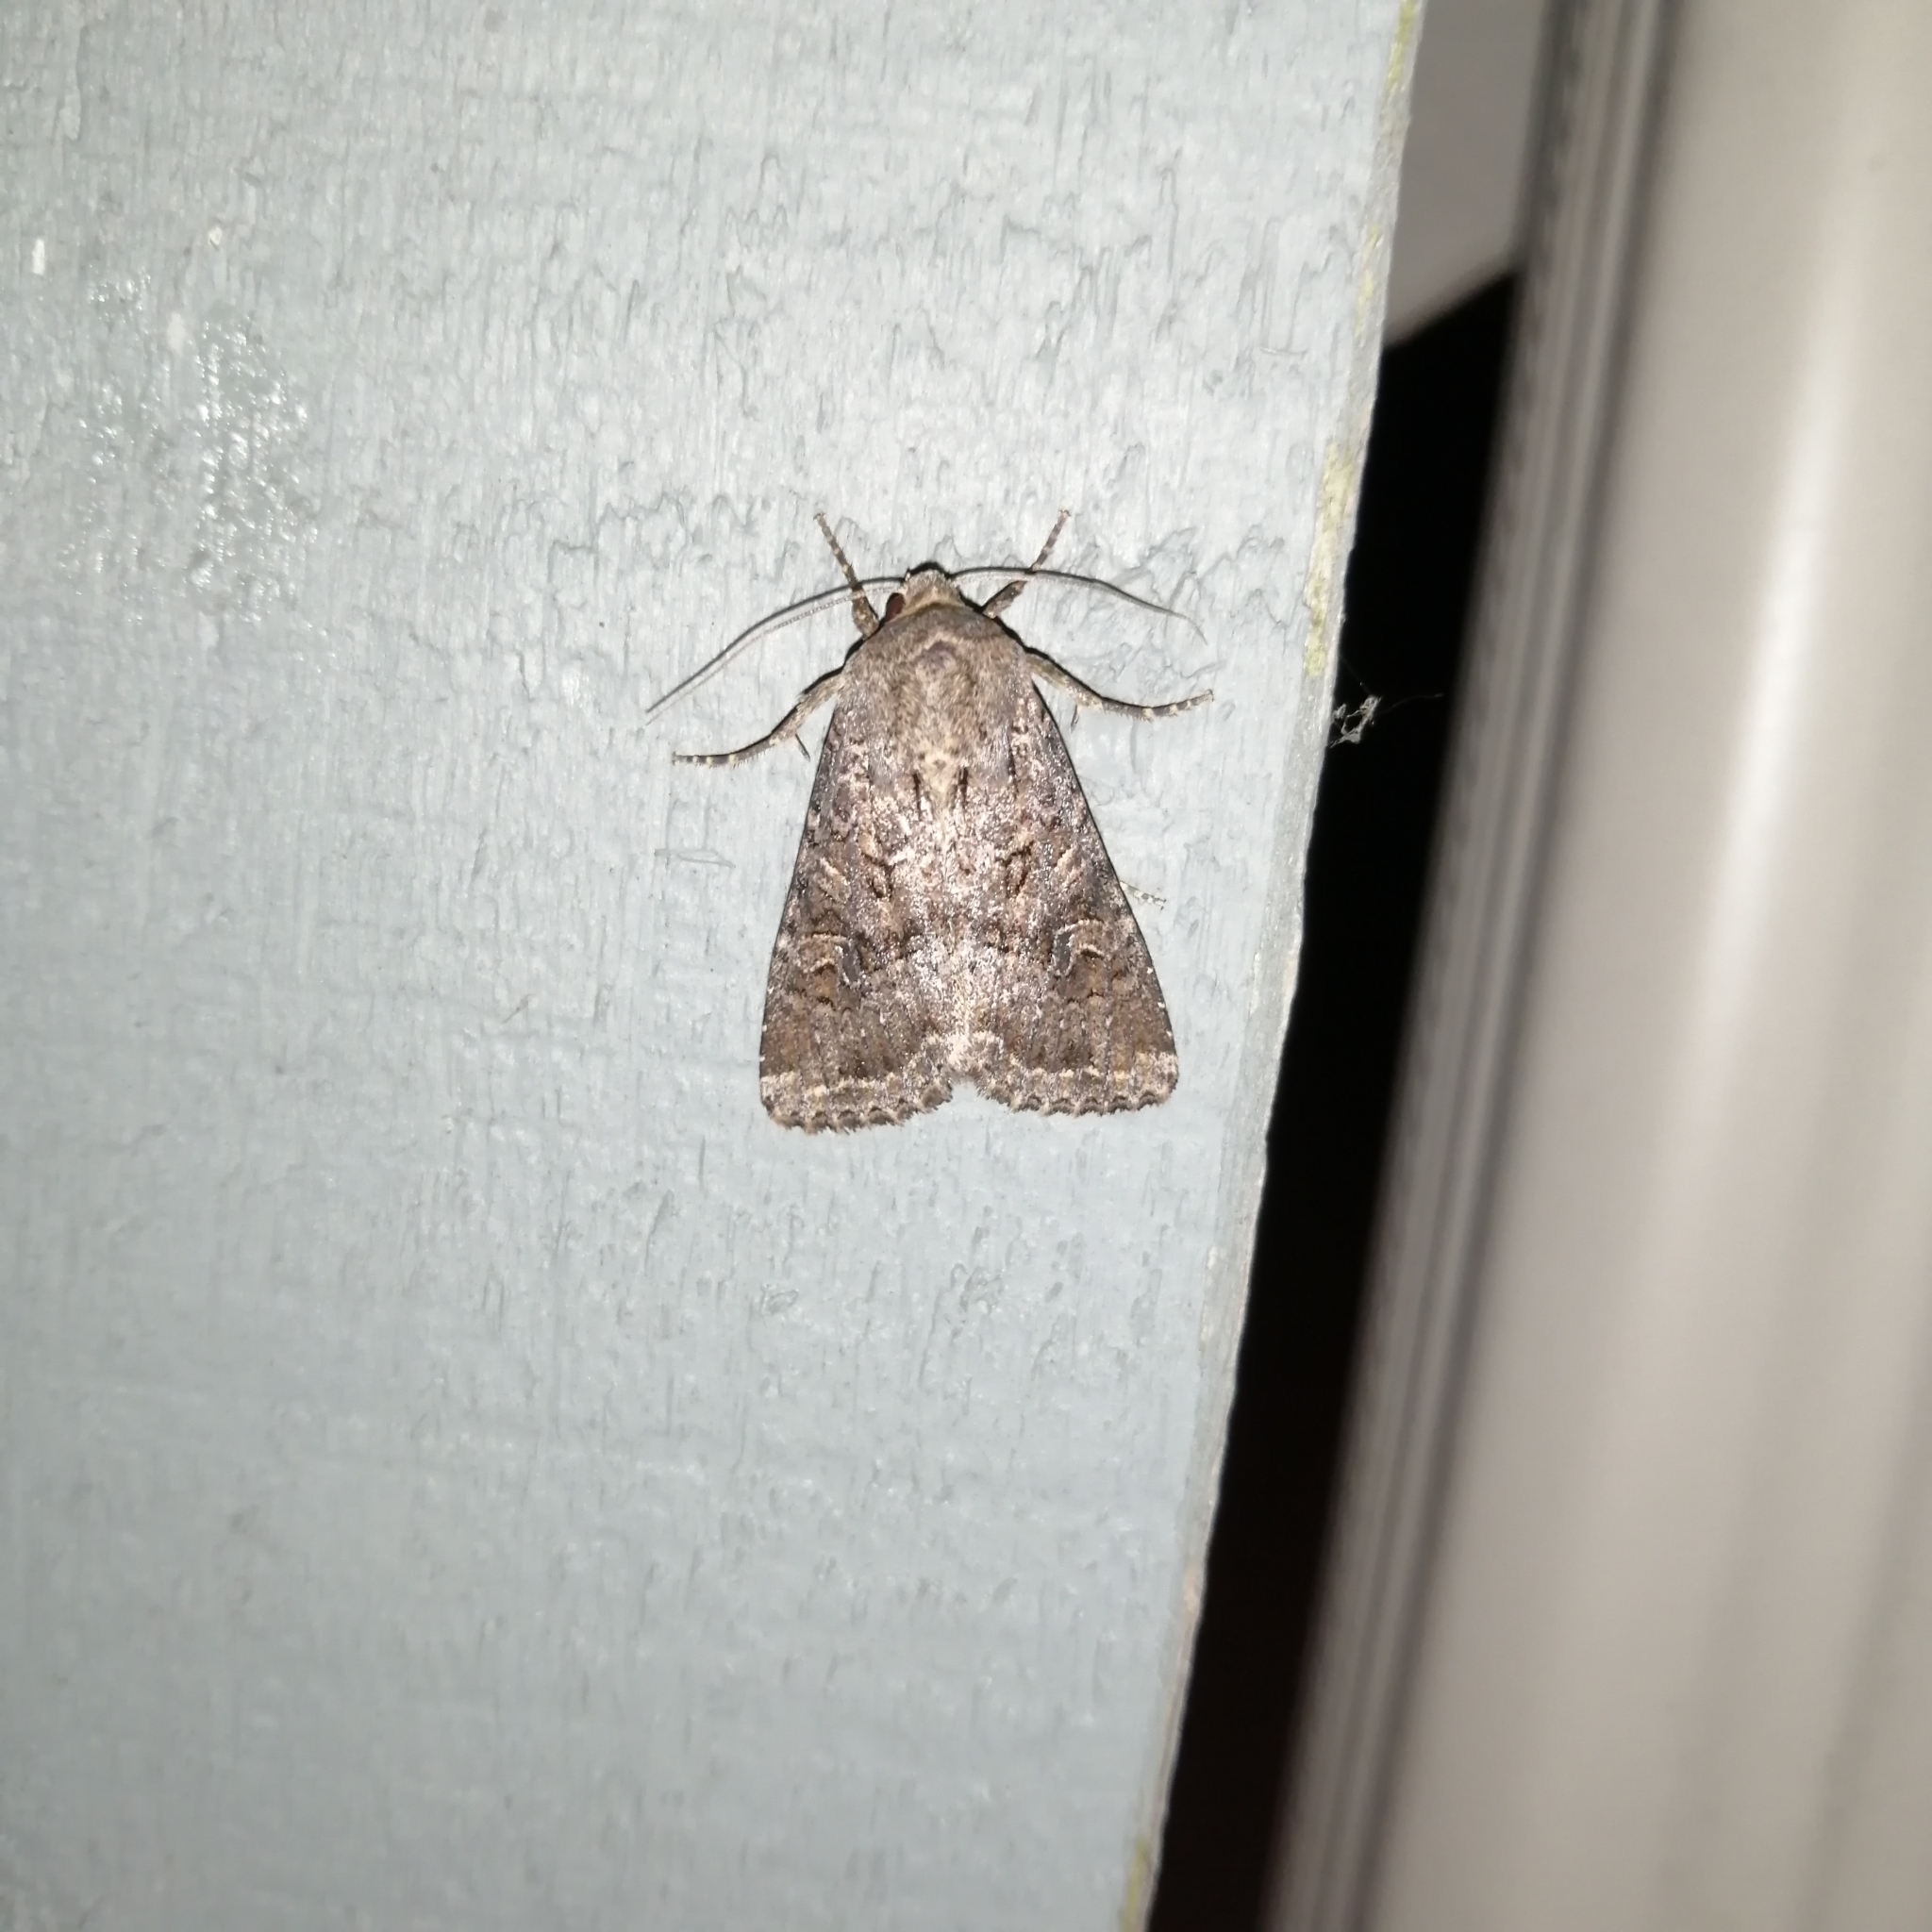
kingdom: Animalia
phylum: Arthropoda
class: Insecta
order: Lepidoptera
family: Noctuidae
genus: Apamea
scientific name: Apamea devastator
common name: Glassy cutworm
